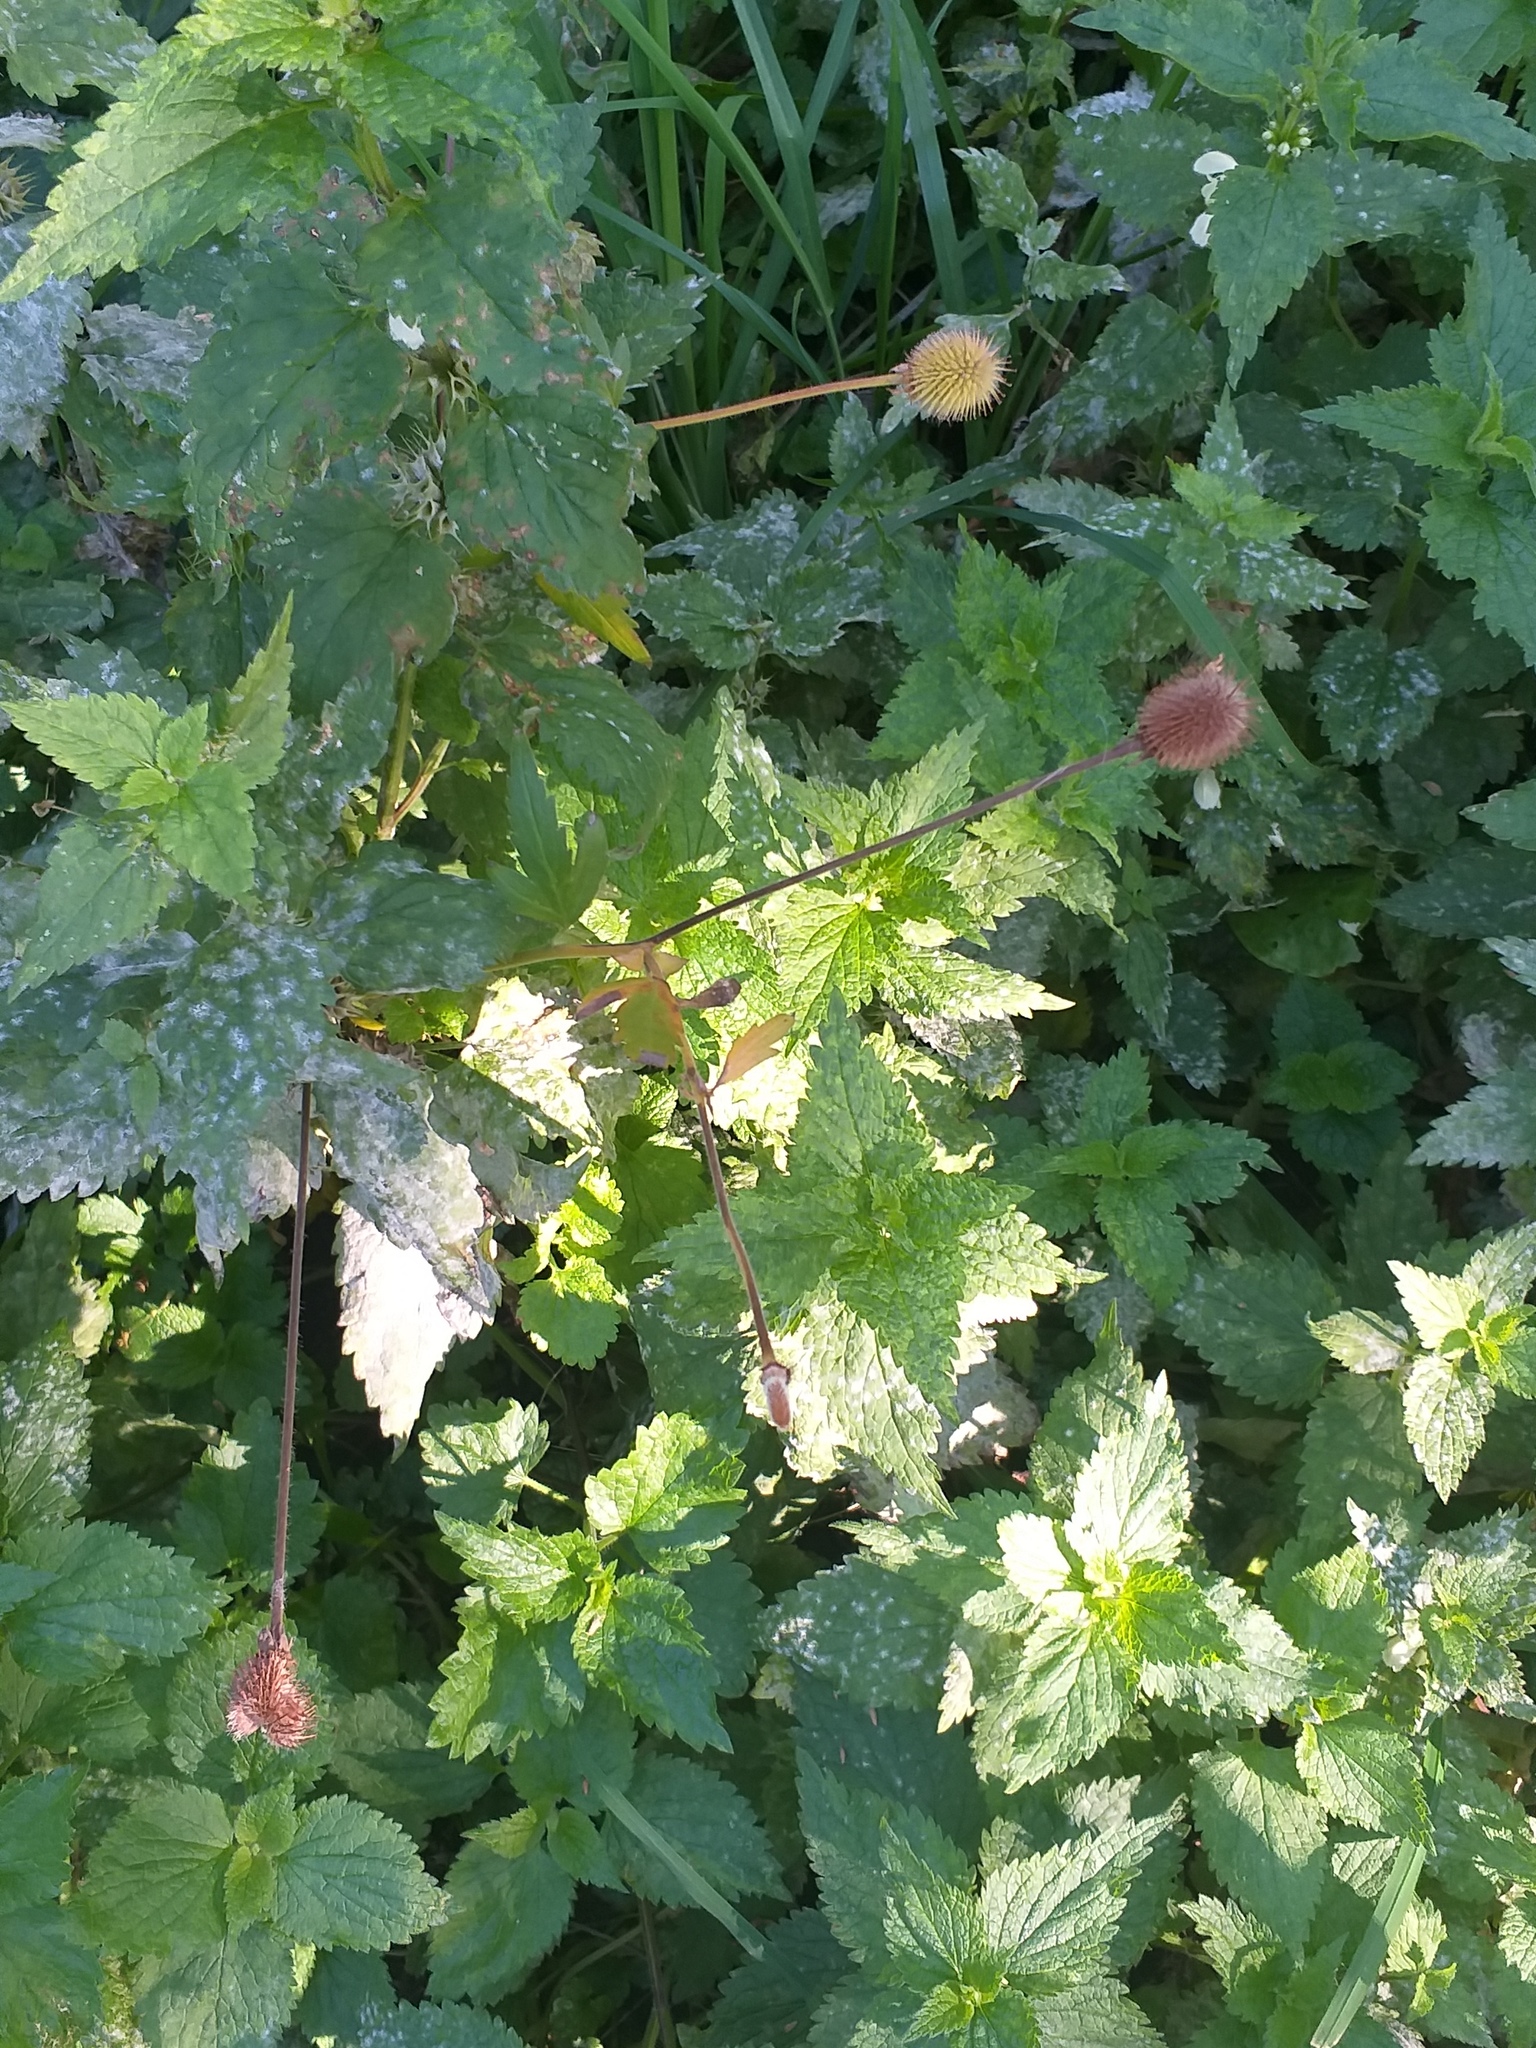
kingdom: Plantae
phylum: Tracheophyta
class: Magnoliopsida
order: Rosales
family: Rosaceae
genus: Geum
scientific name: Geum aleppicum
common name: Yellow avens
